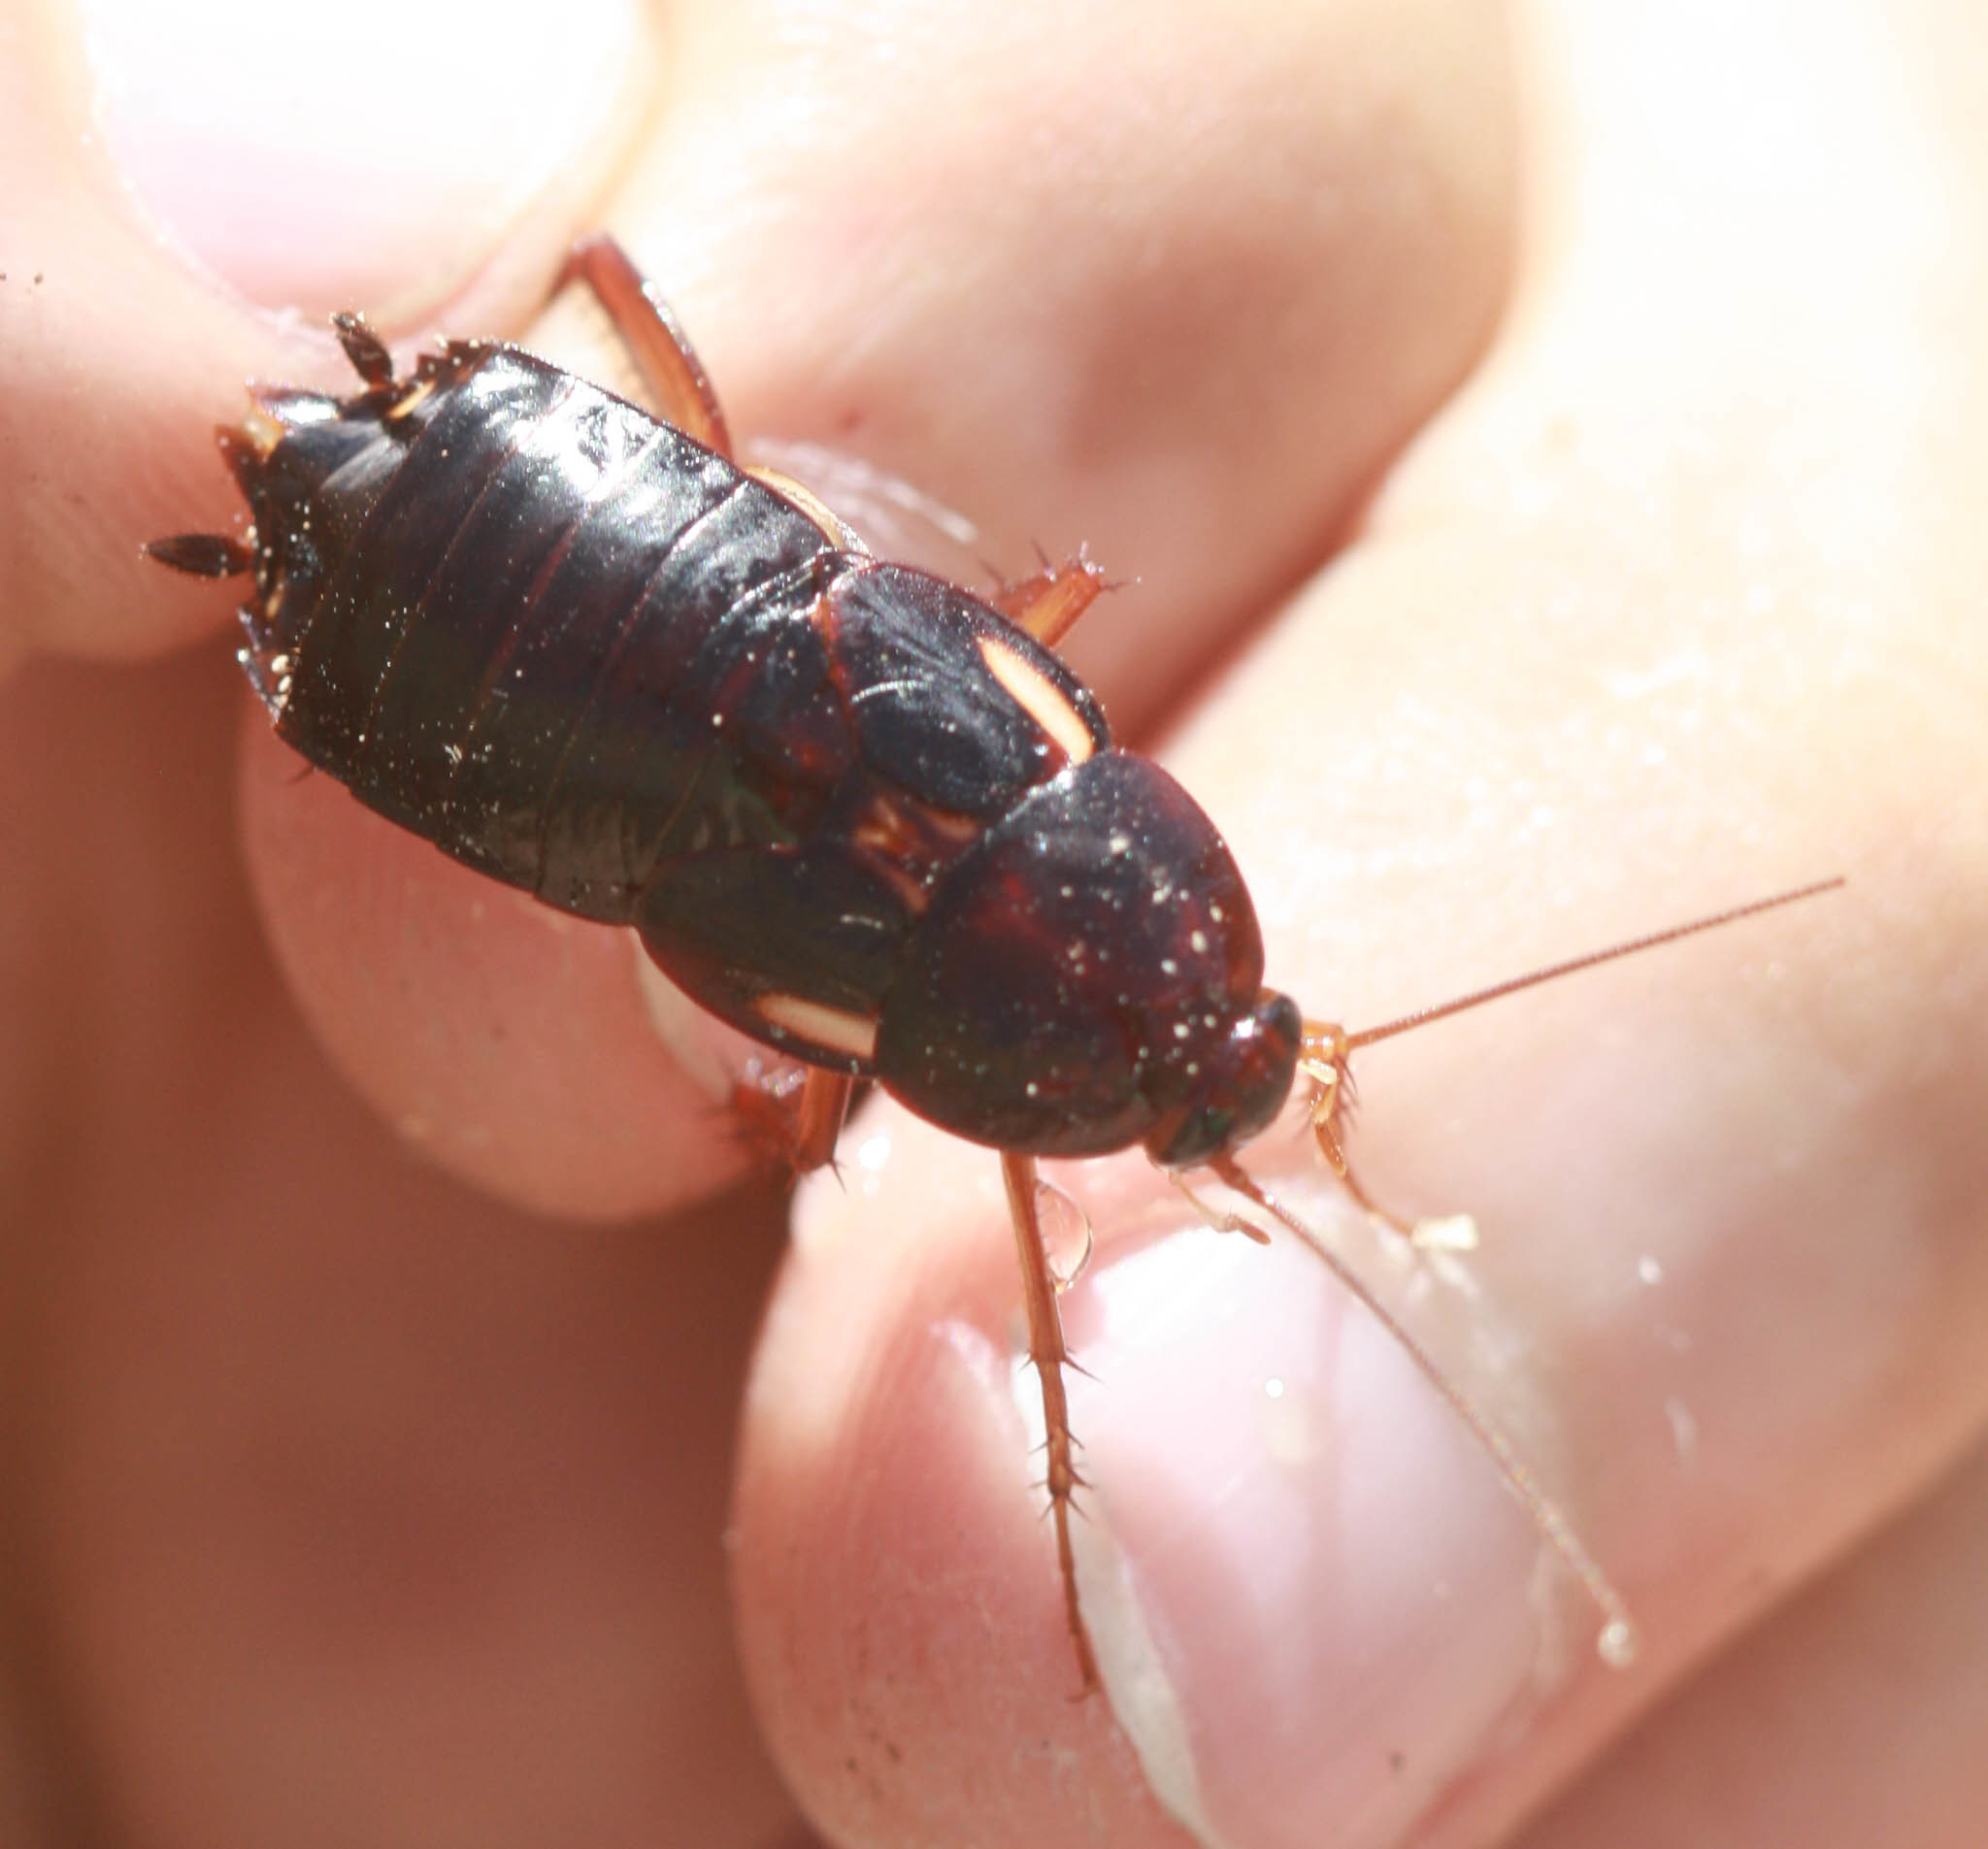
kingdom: Animalia
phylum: Arthropoda
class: Insecta
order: Blattodea
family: Blattidae
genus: Periplaneta
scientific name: Periplaneta lateralis
